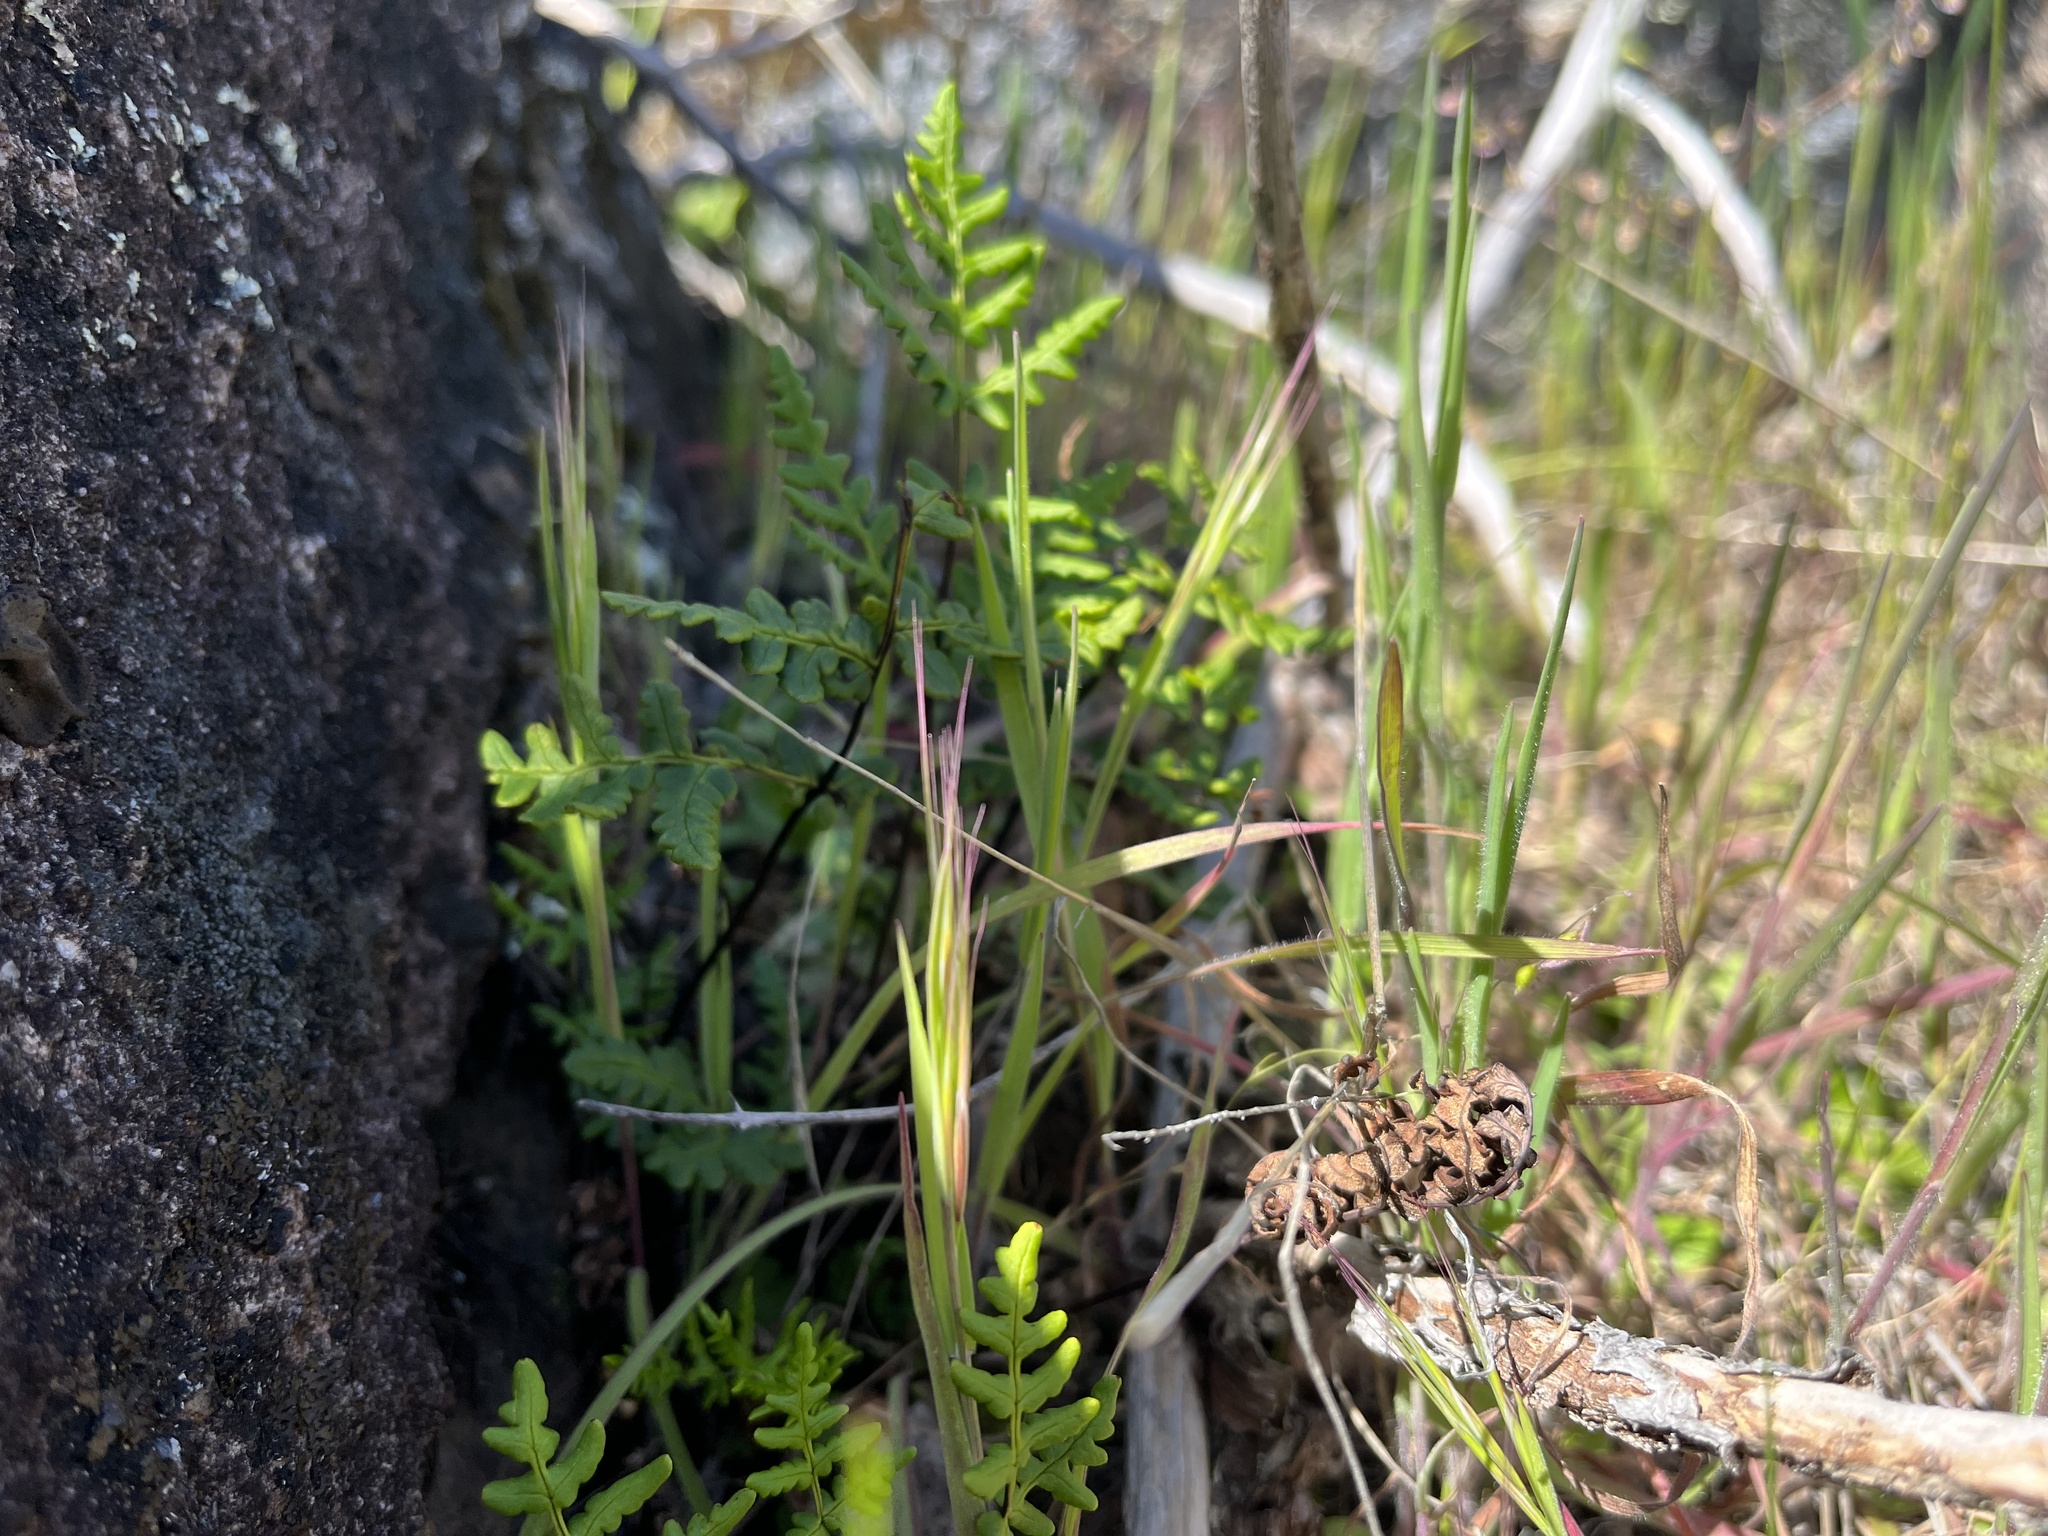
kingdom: Plantae
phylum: Tracheophyta
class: Polypodiopsida
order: Polypodiales
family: Pteridaceae
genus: Pentagramma
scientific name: Pentagramma triangularis
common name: Gold fern
